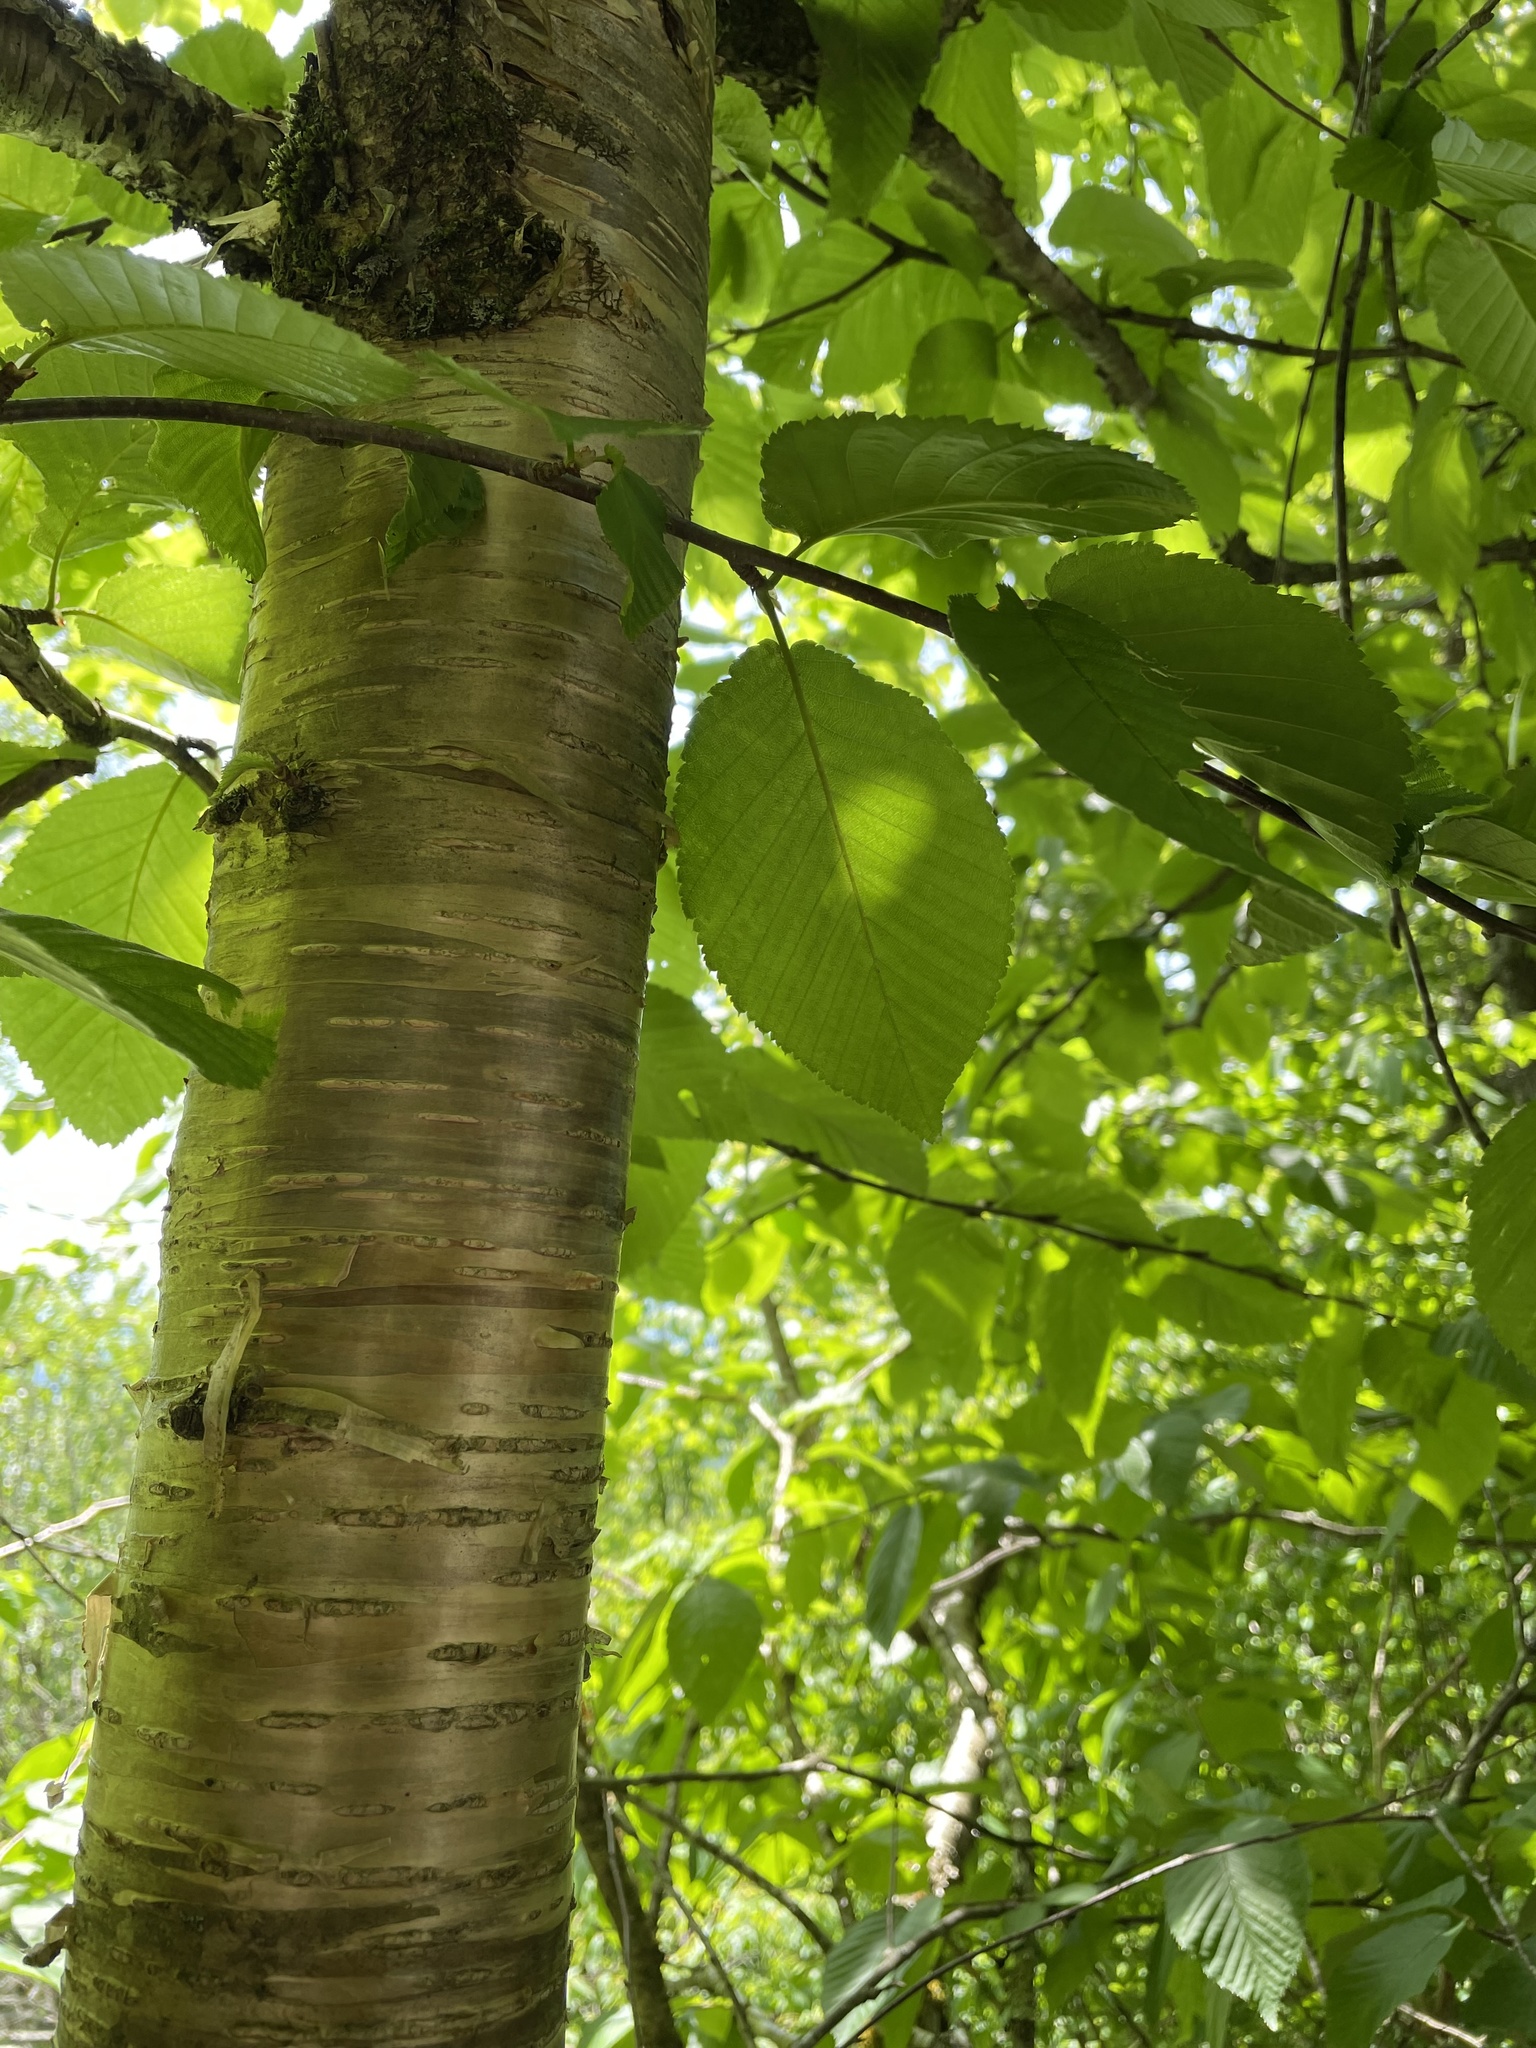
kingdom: Plantae
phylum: Tracheophyta
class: Magnoliopsida
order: Fagales
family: Betulaceae
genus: Betula
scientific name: Betula alleghaniensis
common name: Yellow birch
